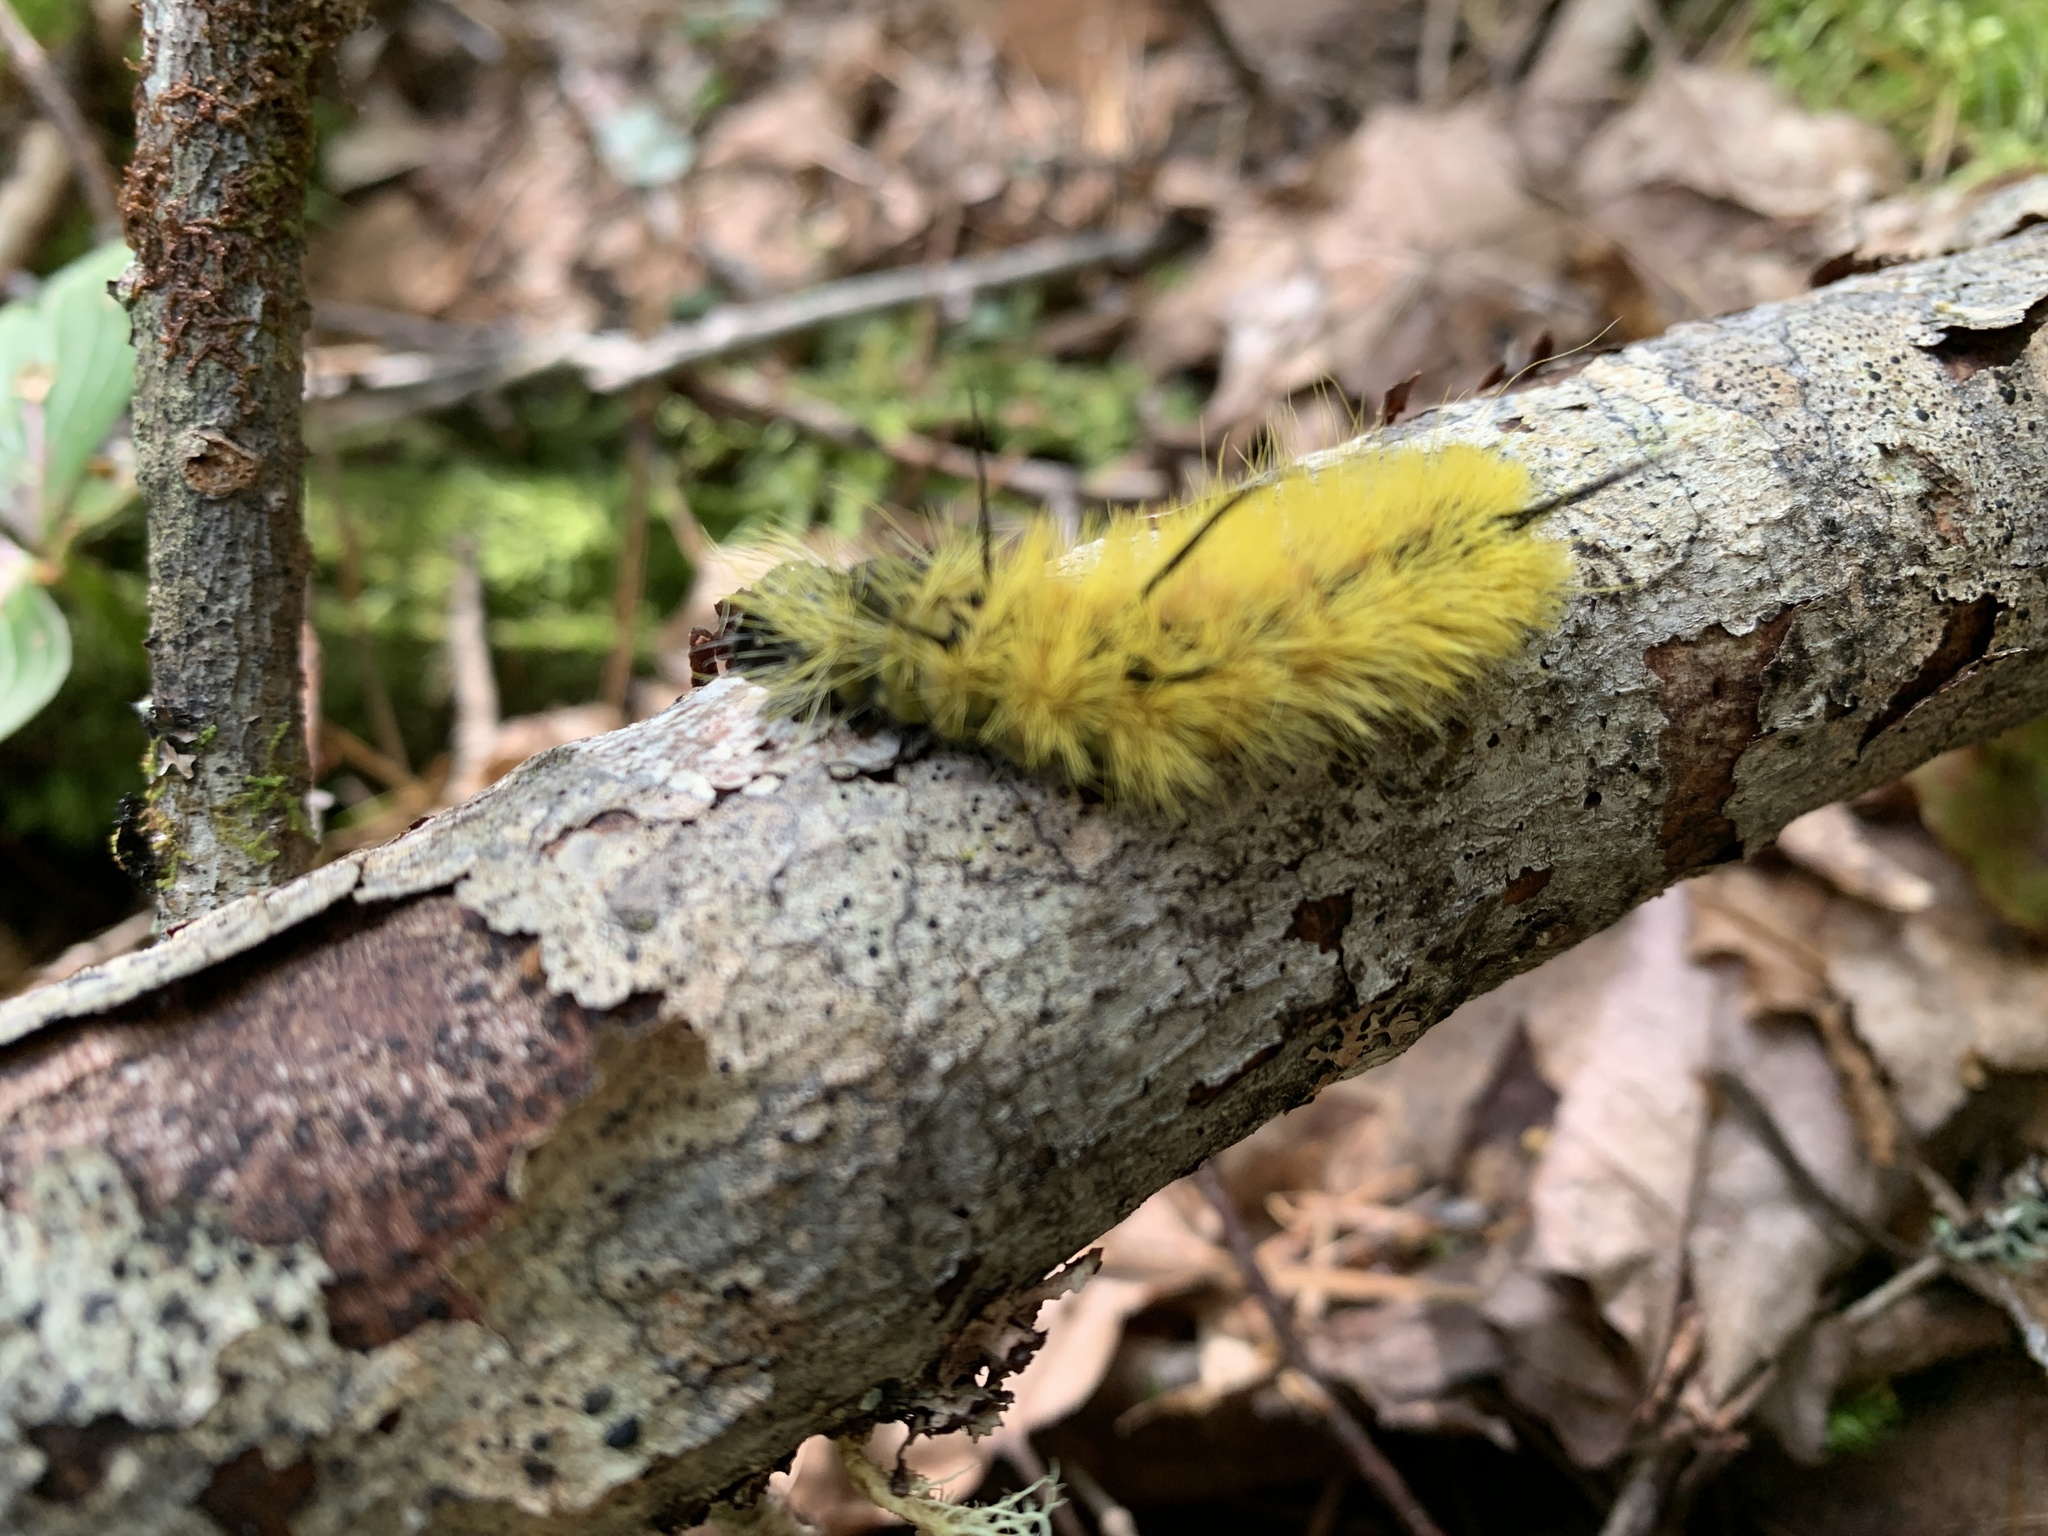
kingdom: Animalia
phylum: Arthropoda
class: Insecta
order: Lepidoptera
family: Noctuidae
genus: Acronicta
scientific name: Acronicta americana
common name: American dagger
